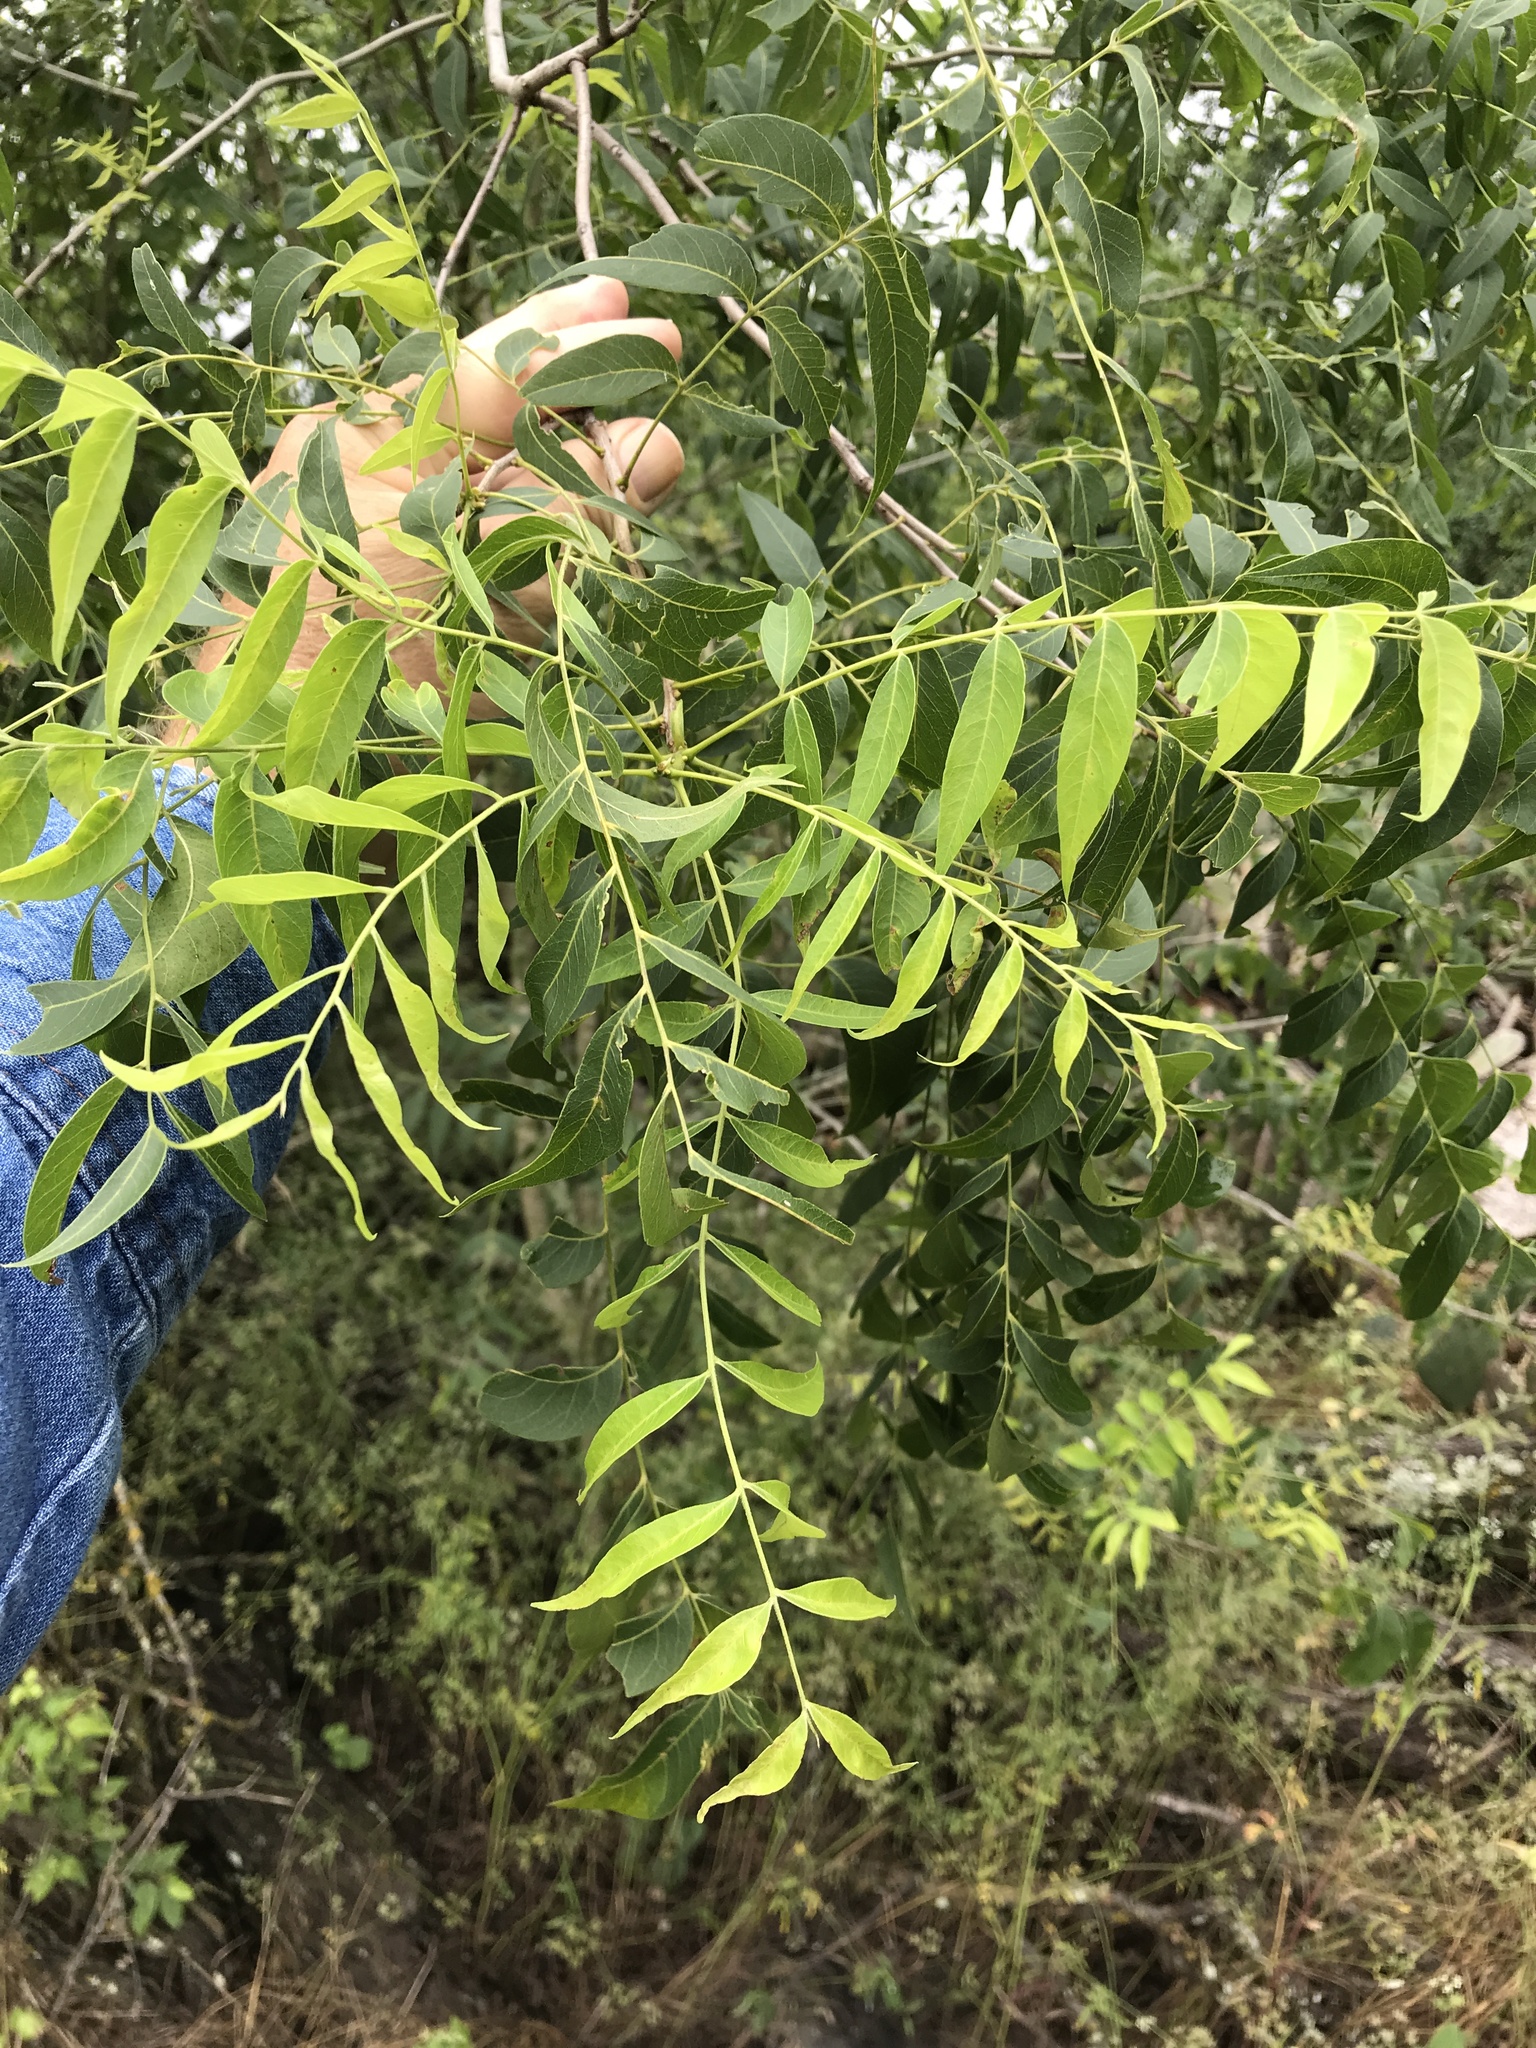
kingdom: Plantae
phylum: Tracheophyta
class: Magnoliopsida
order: Sapindales
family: Sapindaceae
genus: Sapindus
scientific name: Sapindus drummondii
